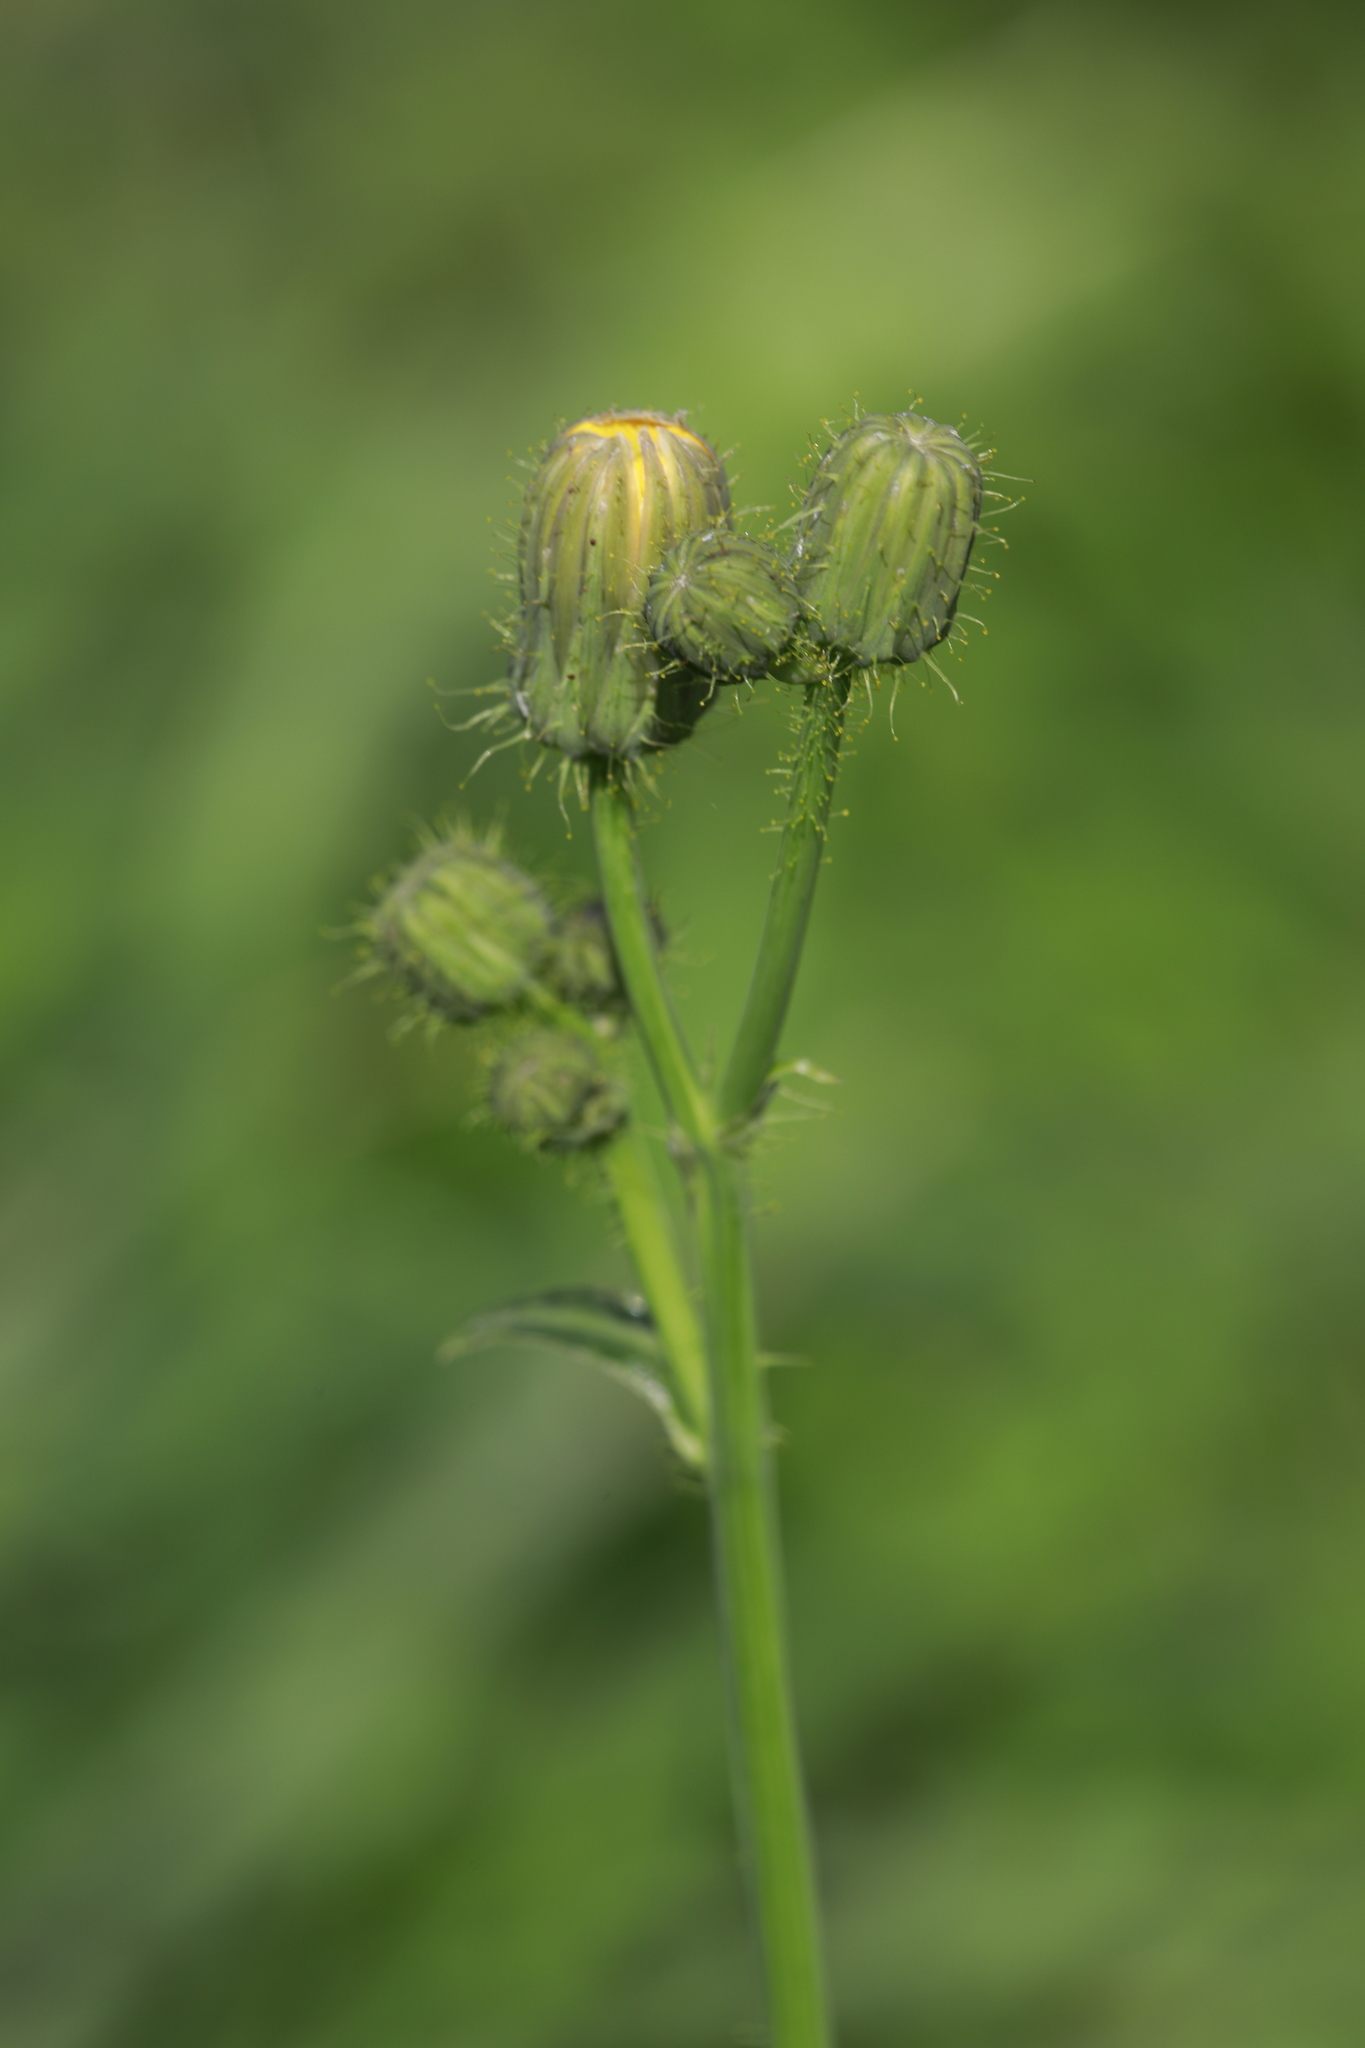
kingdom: Plantae
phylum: Tracheophyta
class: Magnoliopsida
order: Asterales
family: Asteraceae
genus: Sonchus
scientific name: Sonchus arvensis
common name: Perennial sow-thistle
